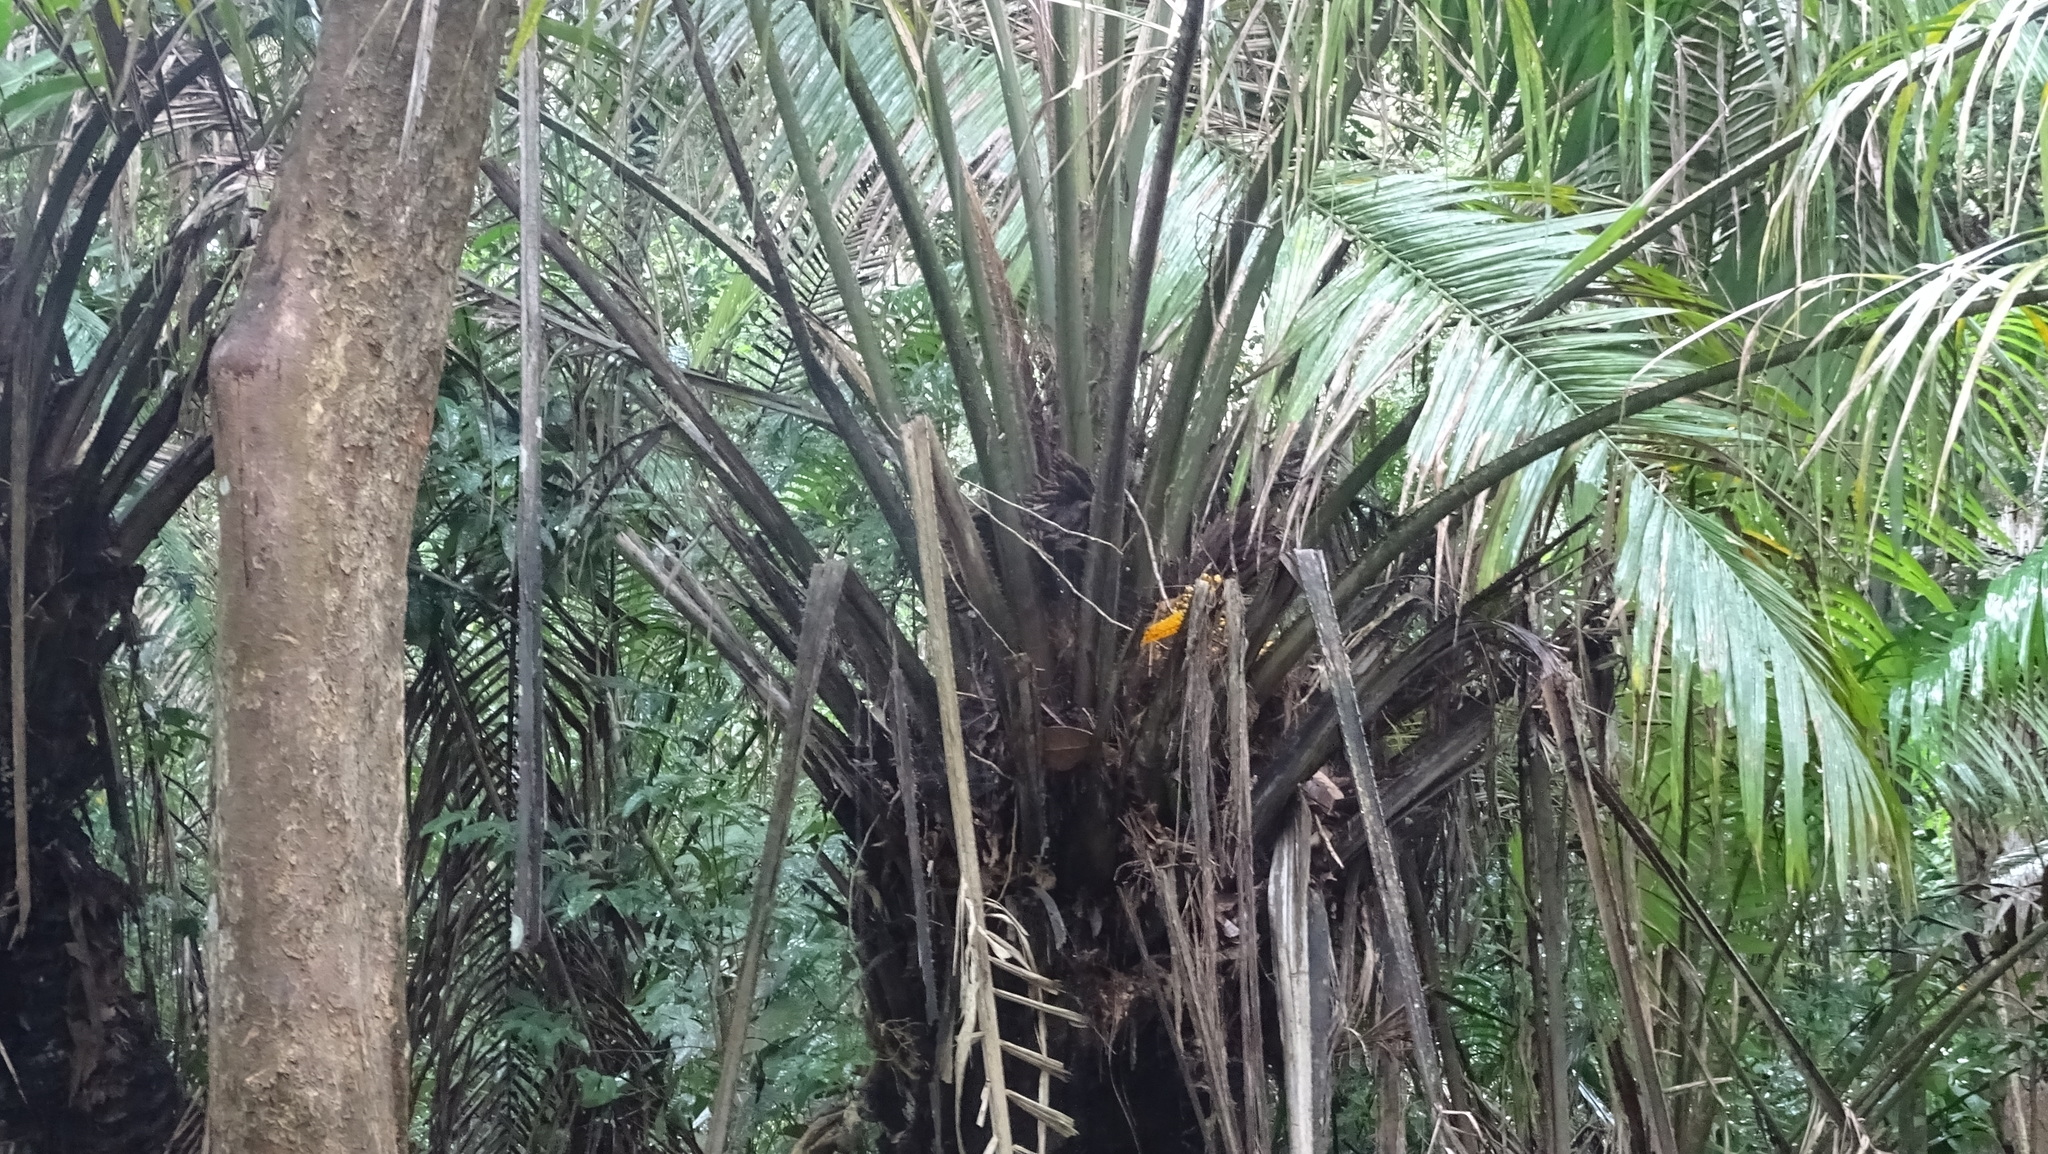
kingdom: Plantae
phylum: Tracheophyta
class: Liliopsida
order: Arecales
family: Arecaceae
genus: Elaeis
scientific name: Elaeis oleifera
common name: American oil palm
